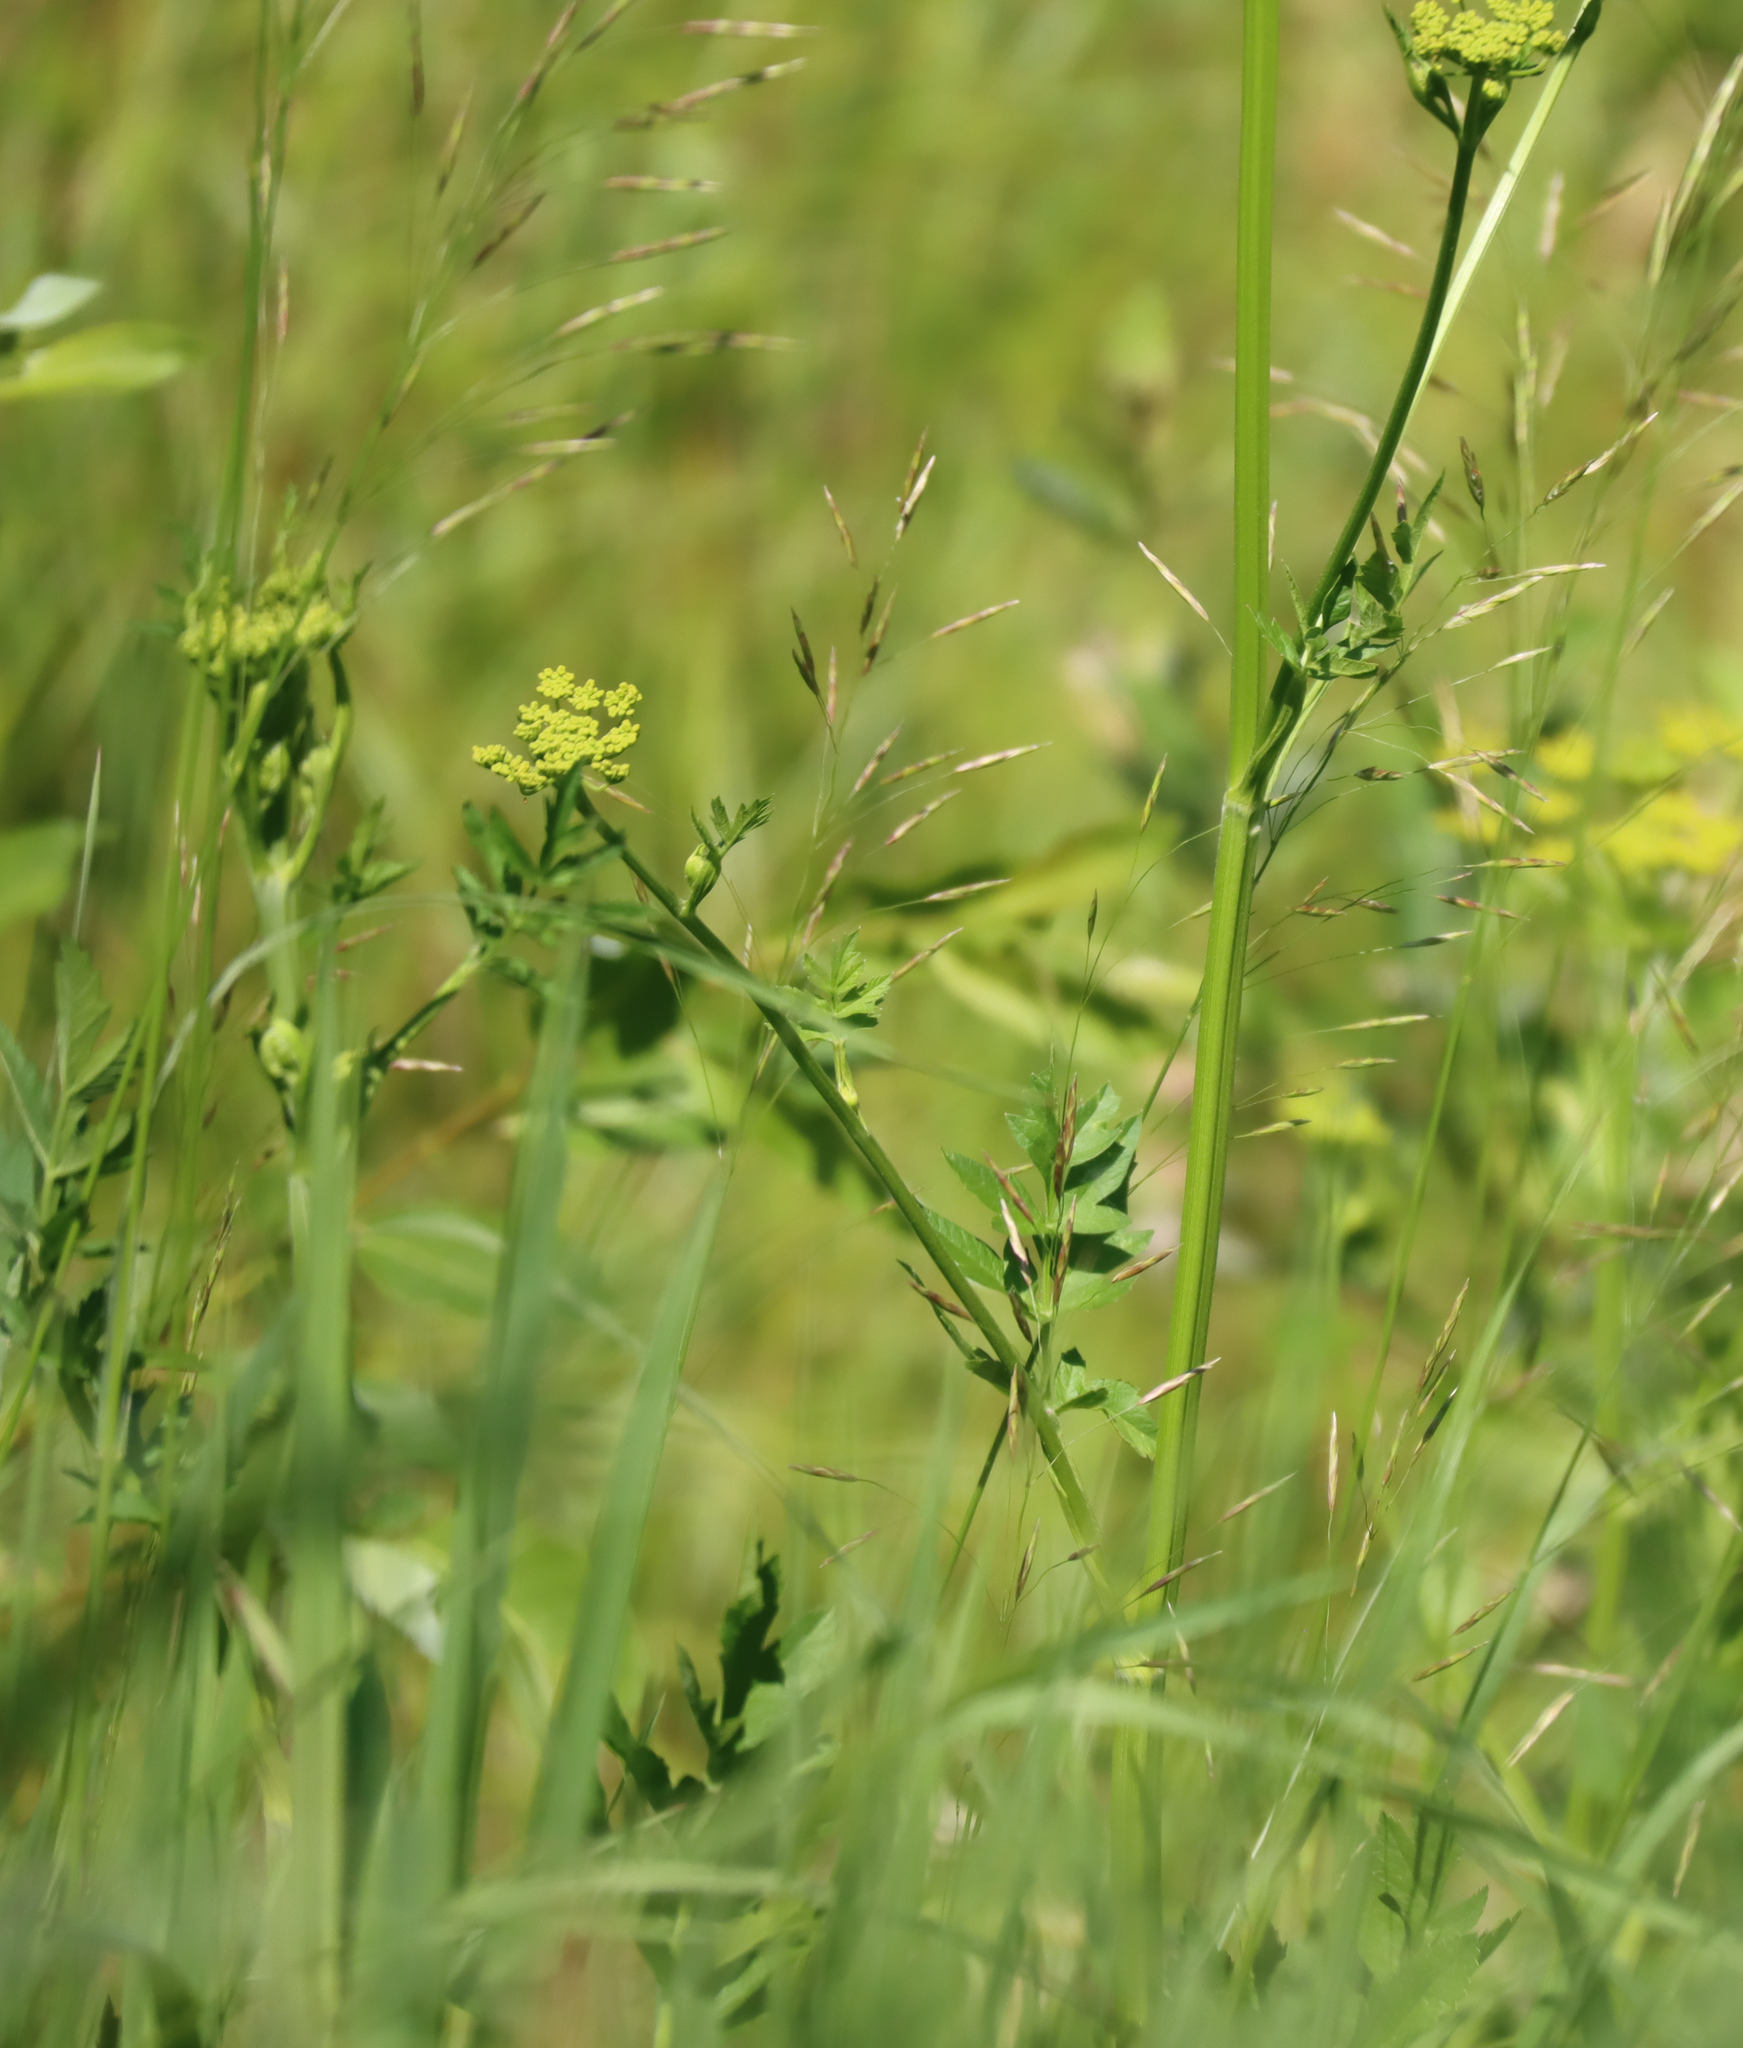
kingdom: Plantae
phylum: Tracheophyta
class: Magnoliopsida
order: Apiales
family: Apiaceae
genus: Pastinaca
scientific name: Pastinaca sativa
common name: Wild parsnip
